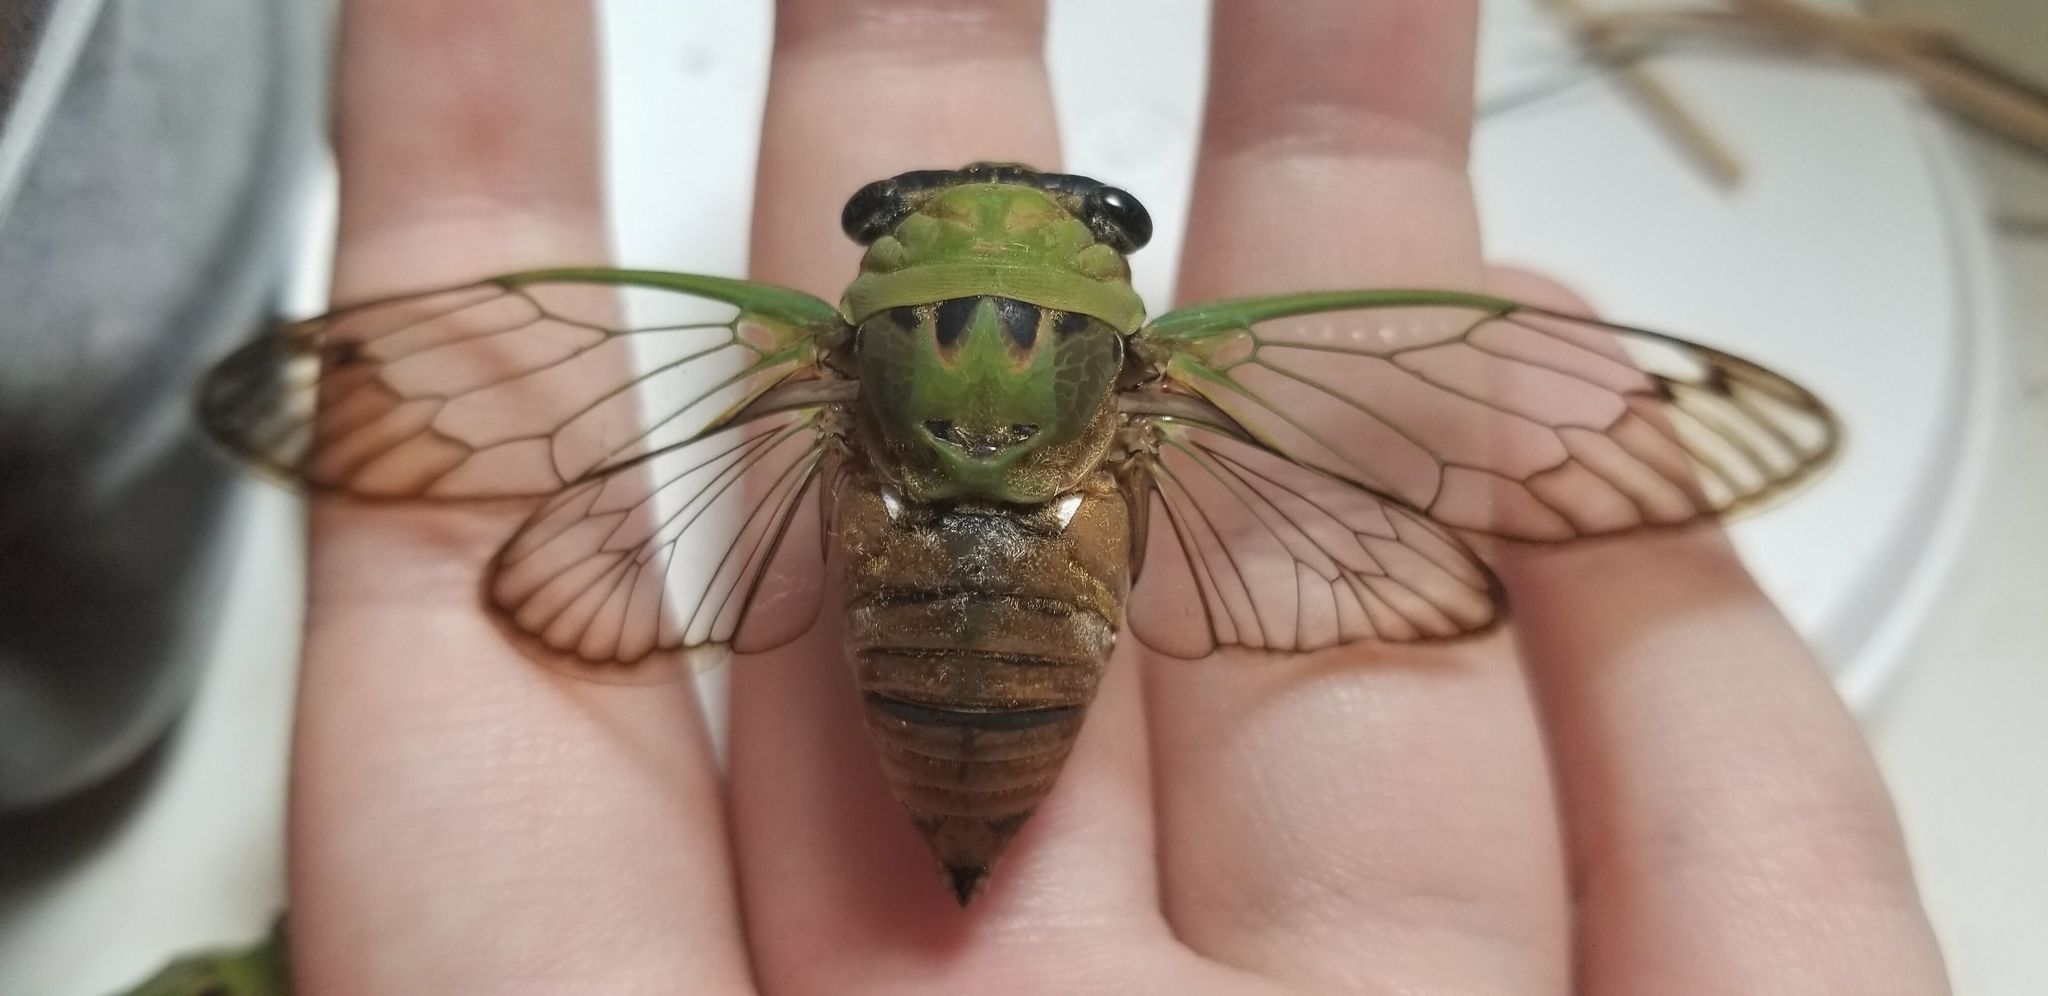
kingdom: Animalia
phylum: Arthropoda
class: Insecta
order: Hemiptera
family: Cicadidae
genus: Neotibicen
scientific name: Neotibicen superbus
